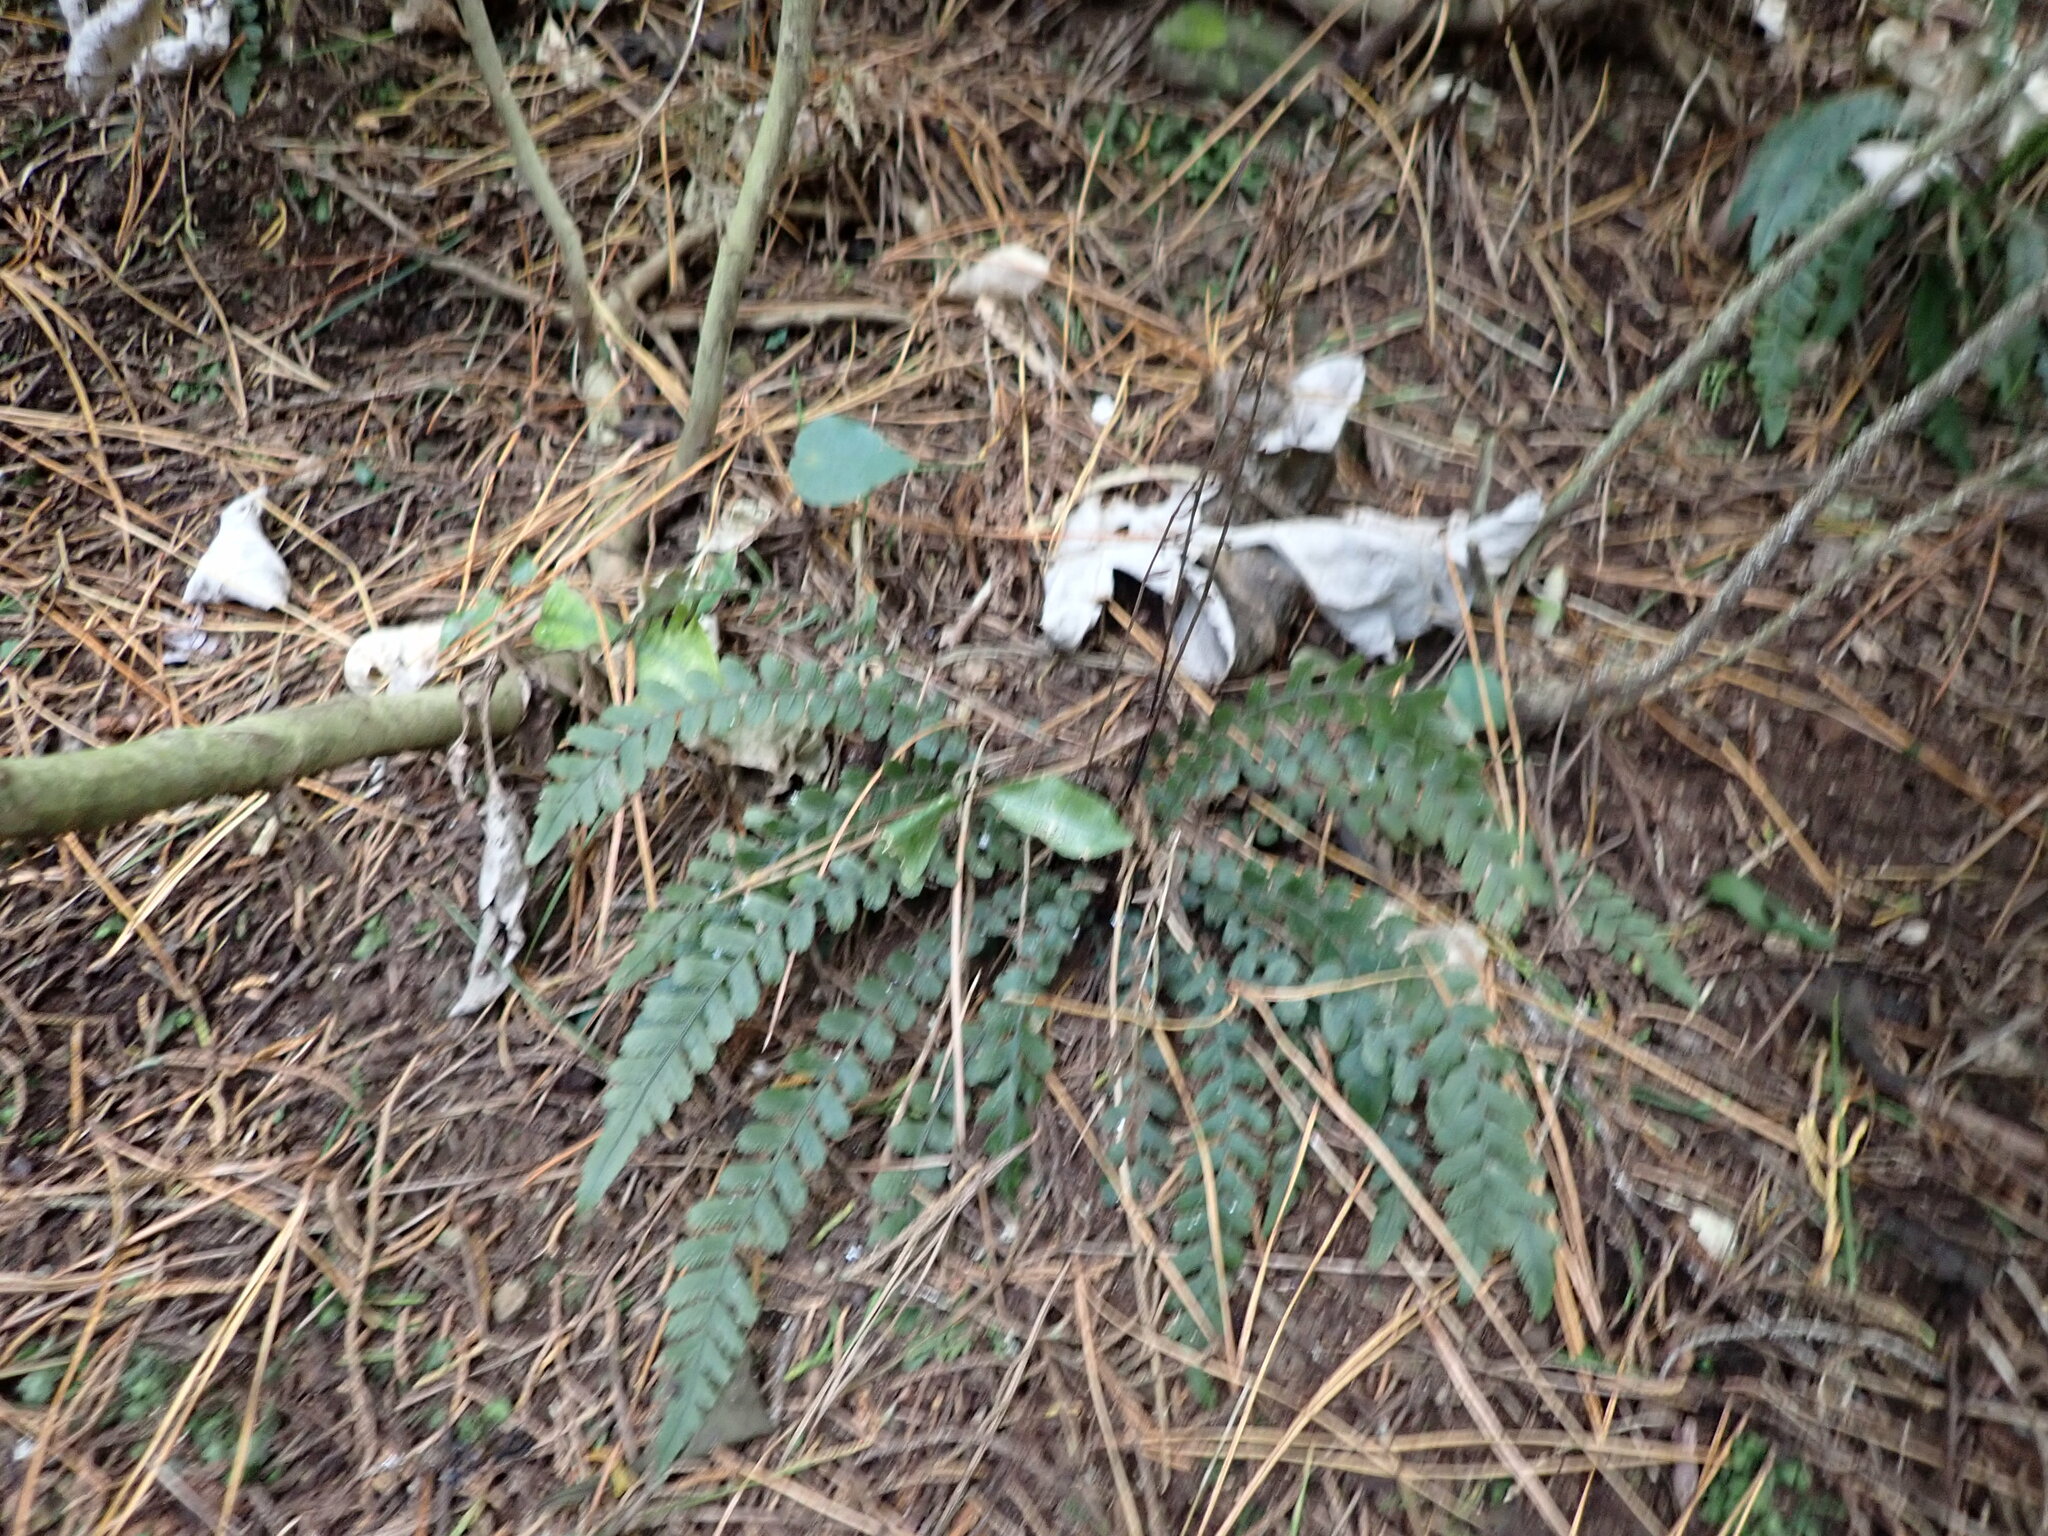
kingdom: Plantae
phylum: Tracheophyta
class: Polypodiopsida
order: Polypodiales
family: Blechnaceae
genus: Austroblechnum
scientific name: Austroblechnum membranaceum
